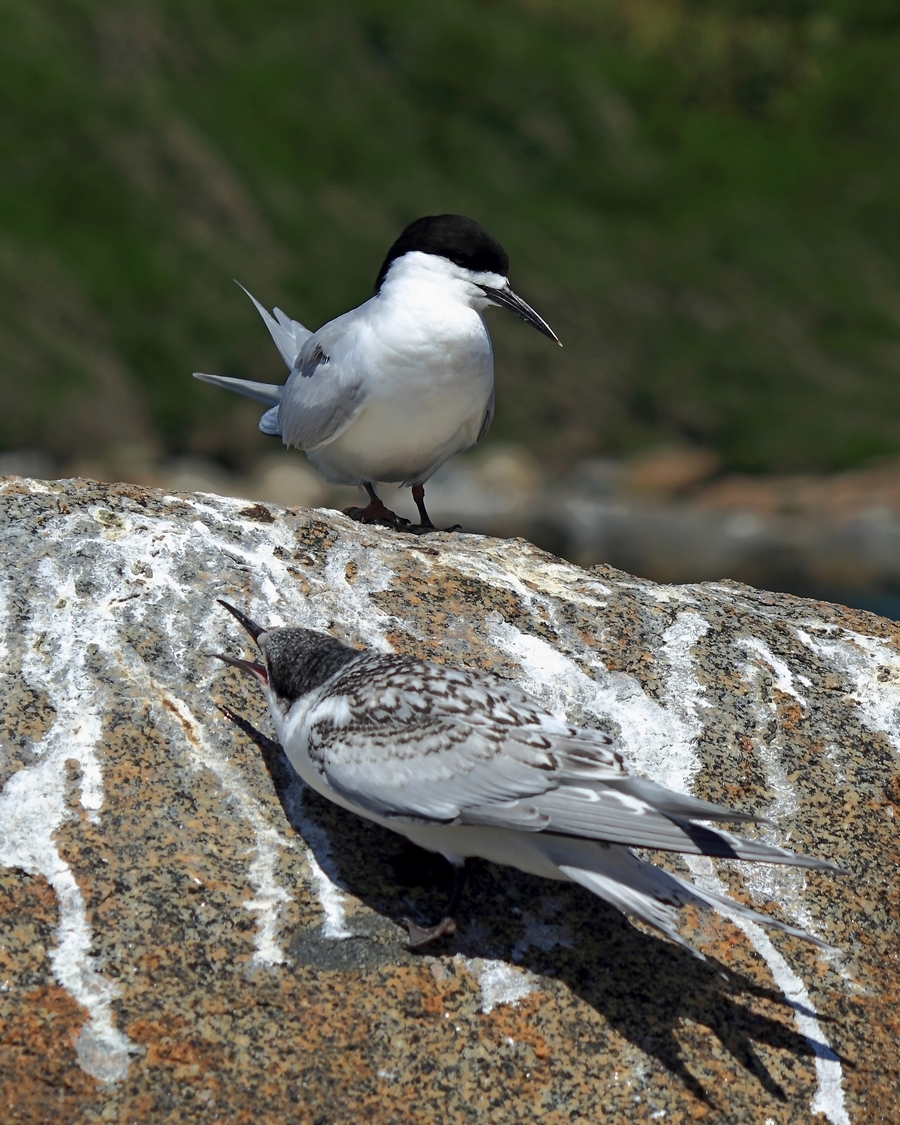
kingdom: Animalia
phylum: Chordata
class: Aves
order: Charadriiformes
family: Laridae
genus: Sterna
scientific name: Sterna striata
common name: White-fronted tern
